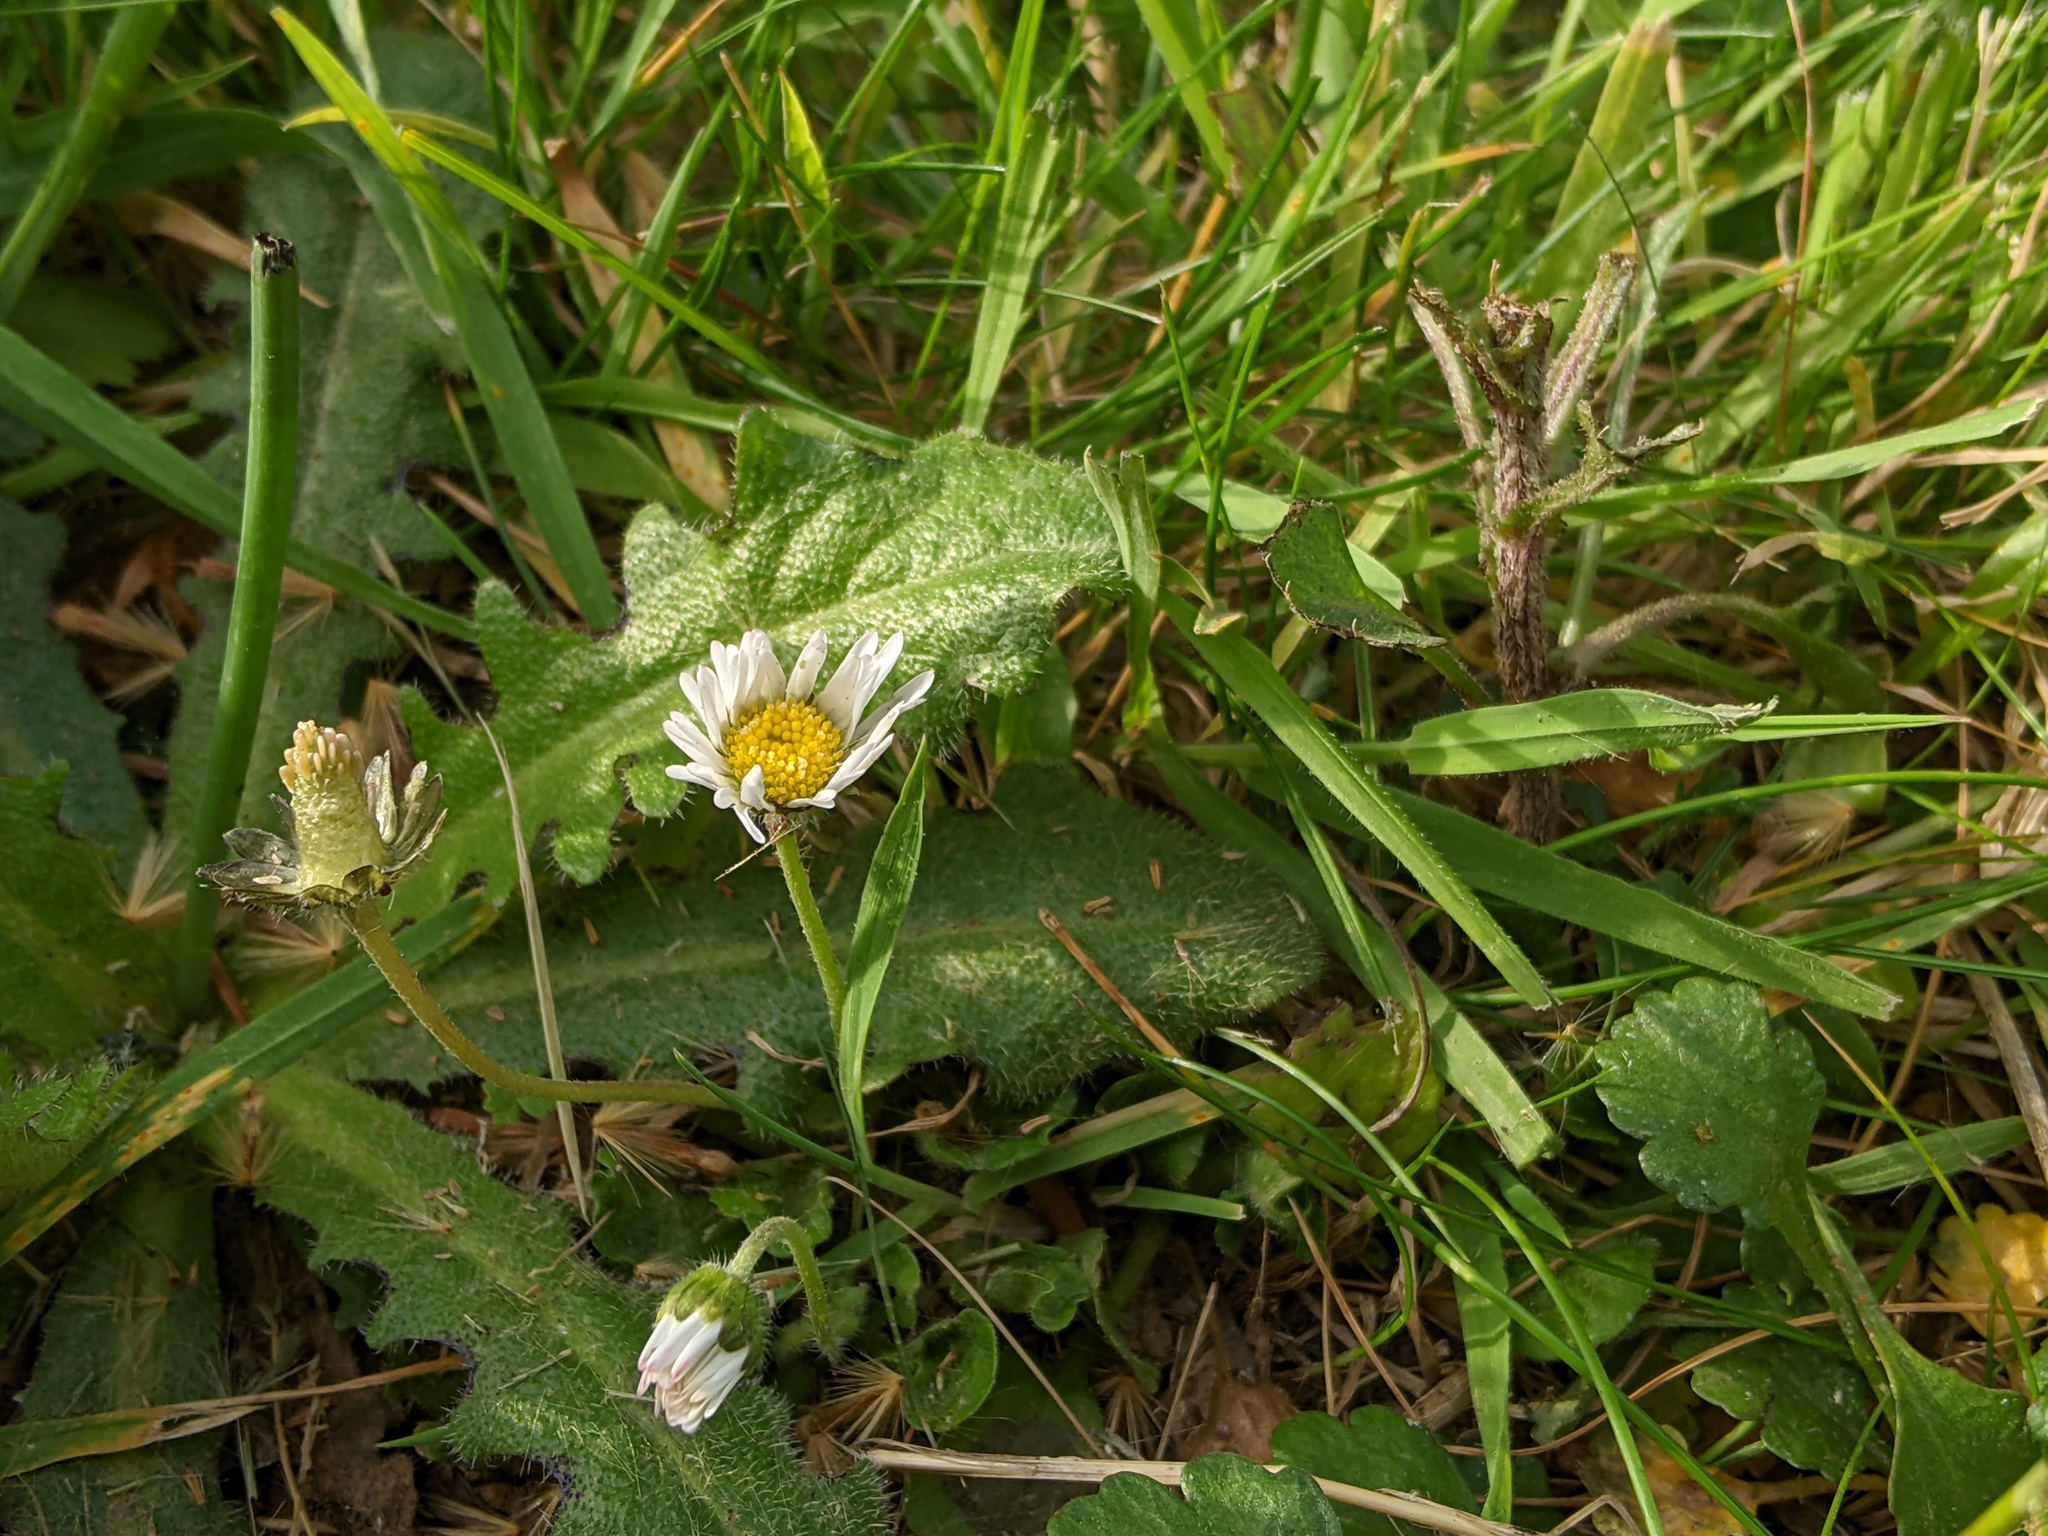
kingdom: Plantae
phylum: Tracheophyta
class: Magnoliopsida
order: Asterales
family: Asteraceae
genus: Bellis
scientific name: Bellis perennis
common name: Lawndaisy
